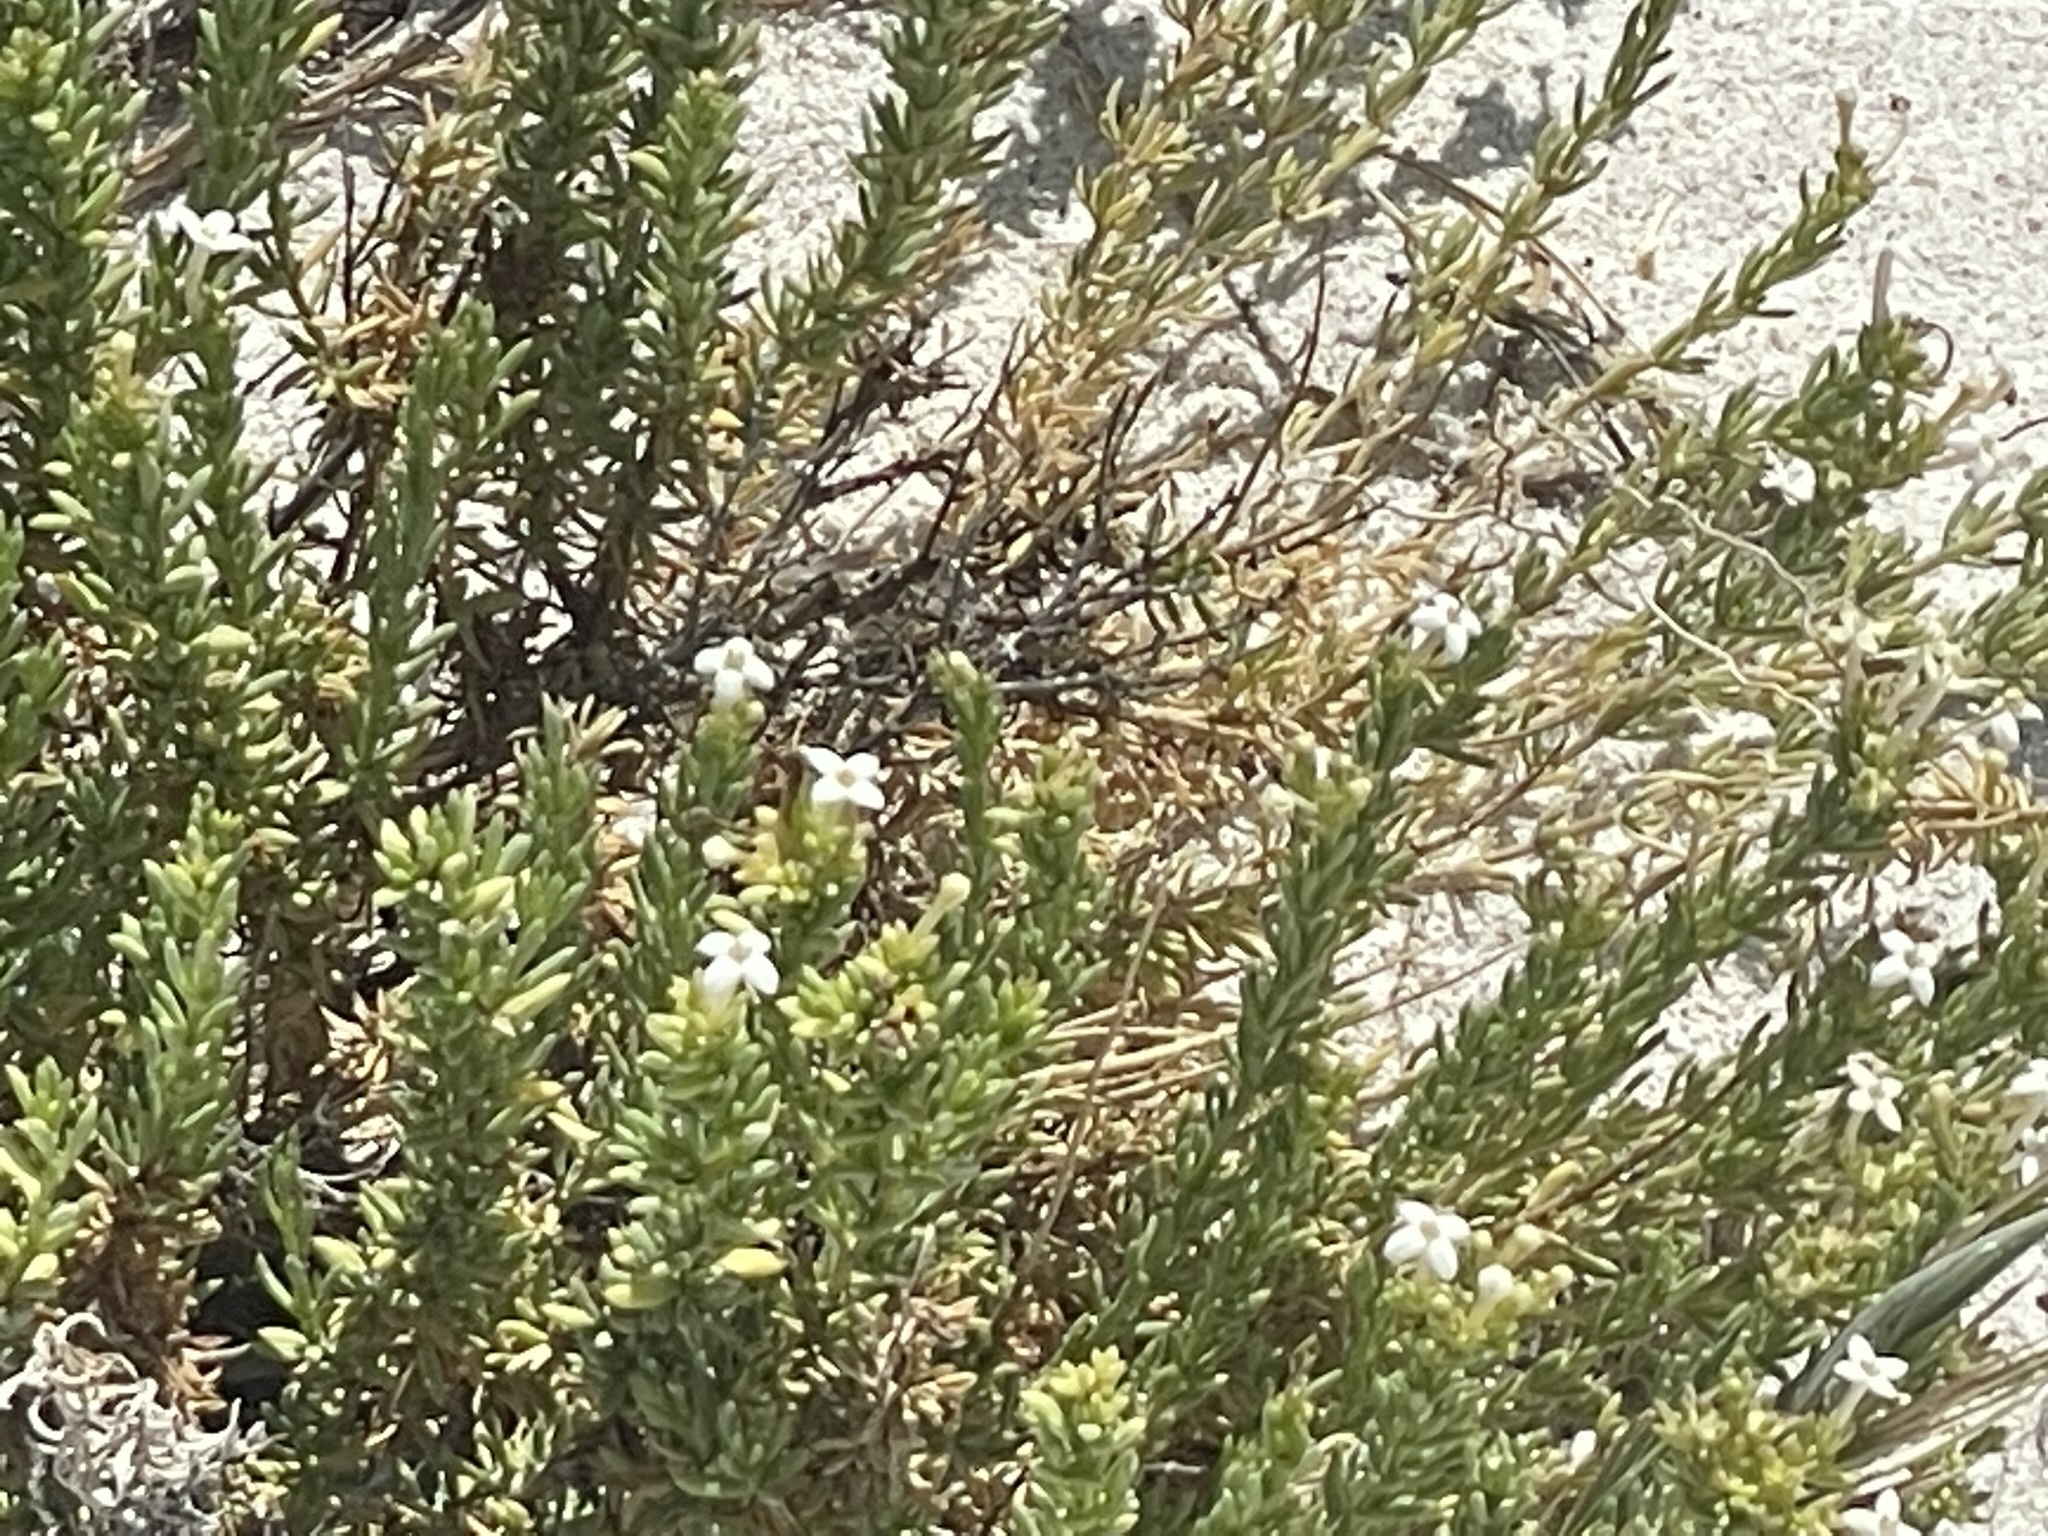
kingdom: Plantae
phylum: Tracheophyta
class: Magnoliopsida
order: Gentianales
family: Rubiaceae
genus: Stenotis
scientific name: Stenotis mucronata
